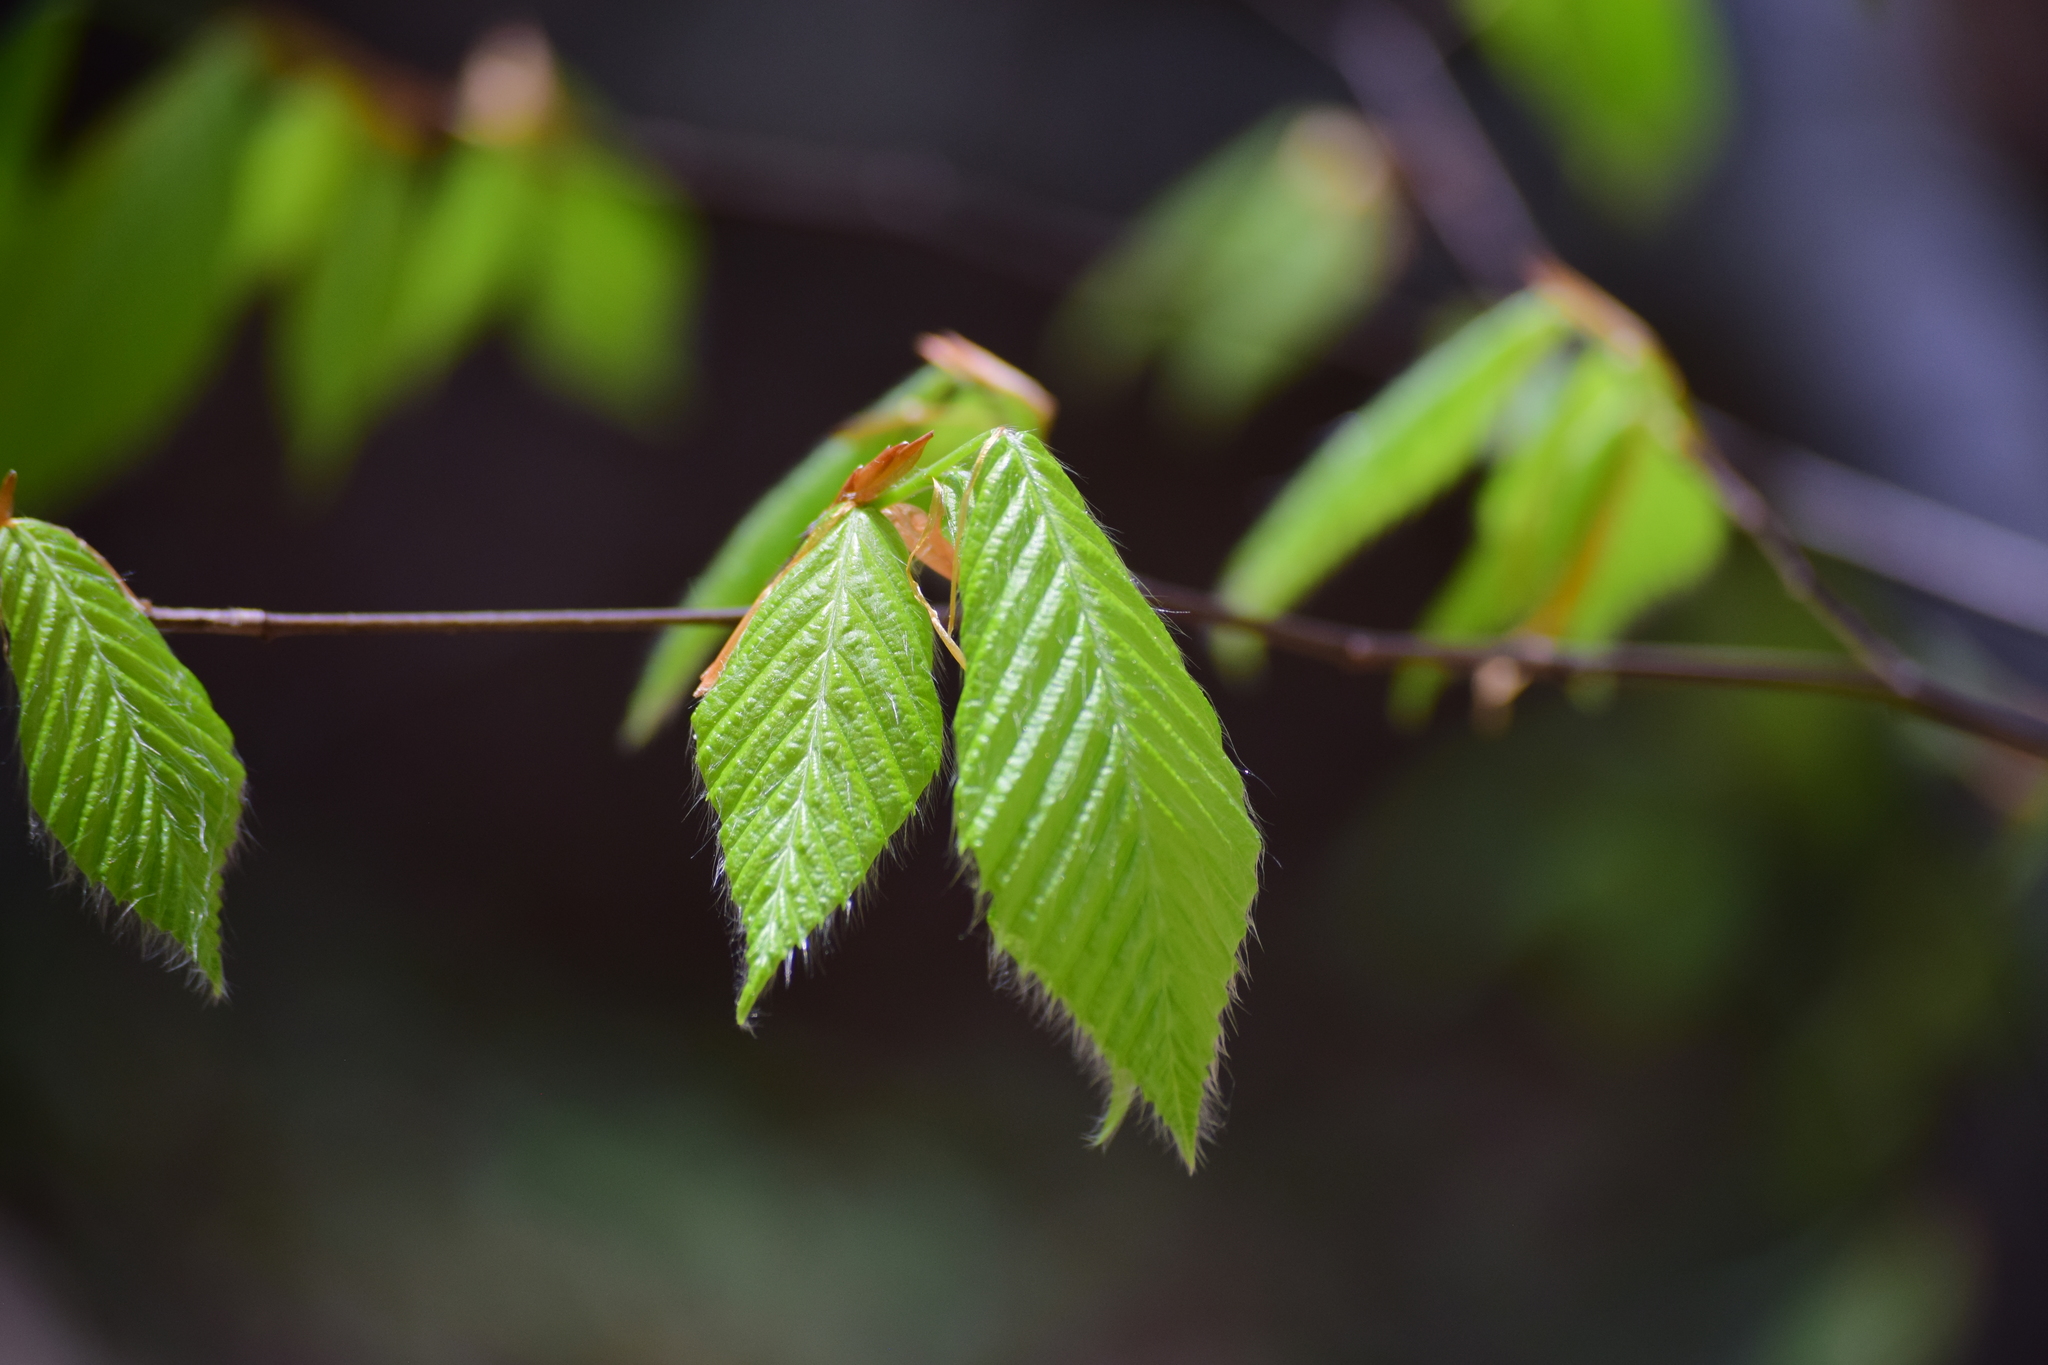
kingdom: Plantae
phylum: Tracheophyta
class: Magnoliopsida
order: Fagales
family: Fagaceae
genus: Fagus
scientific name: Fagus grandifolia
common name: American beech
